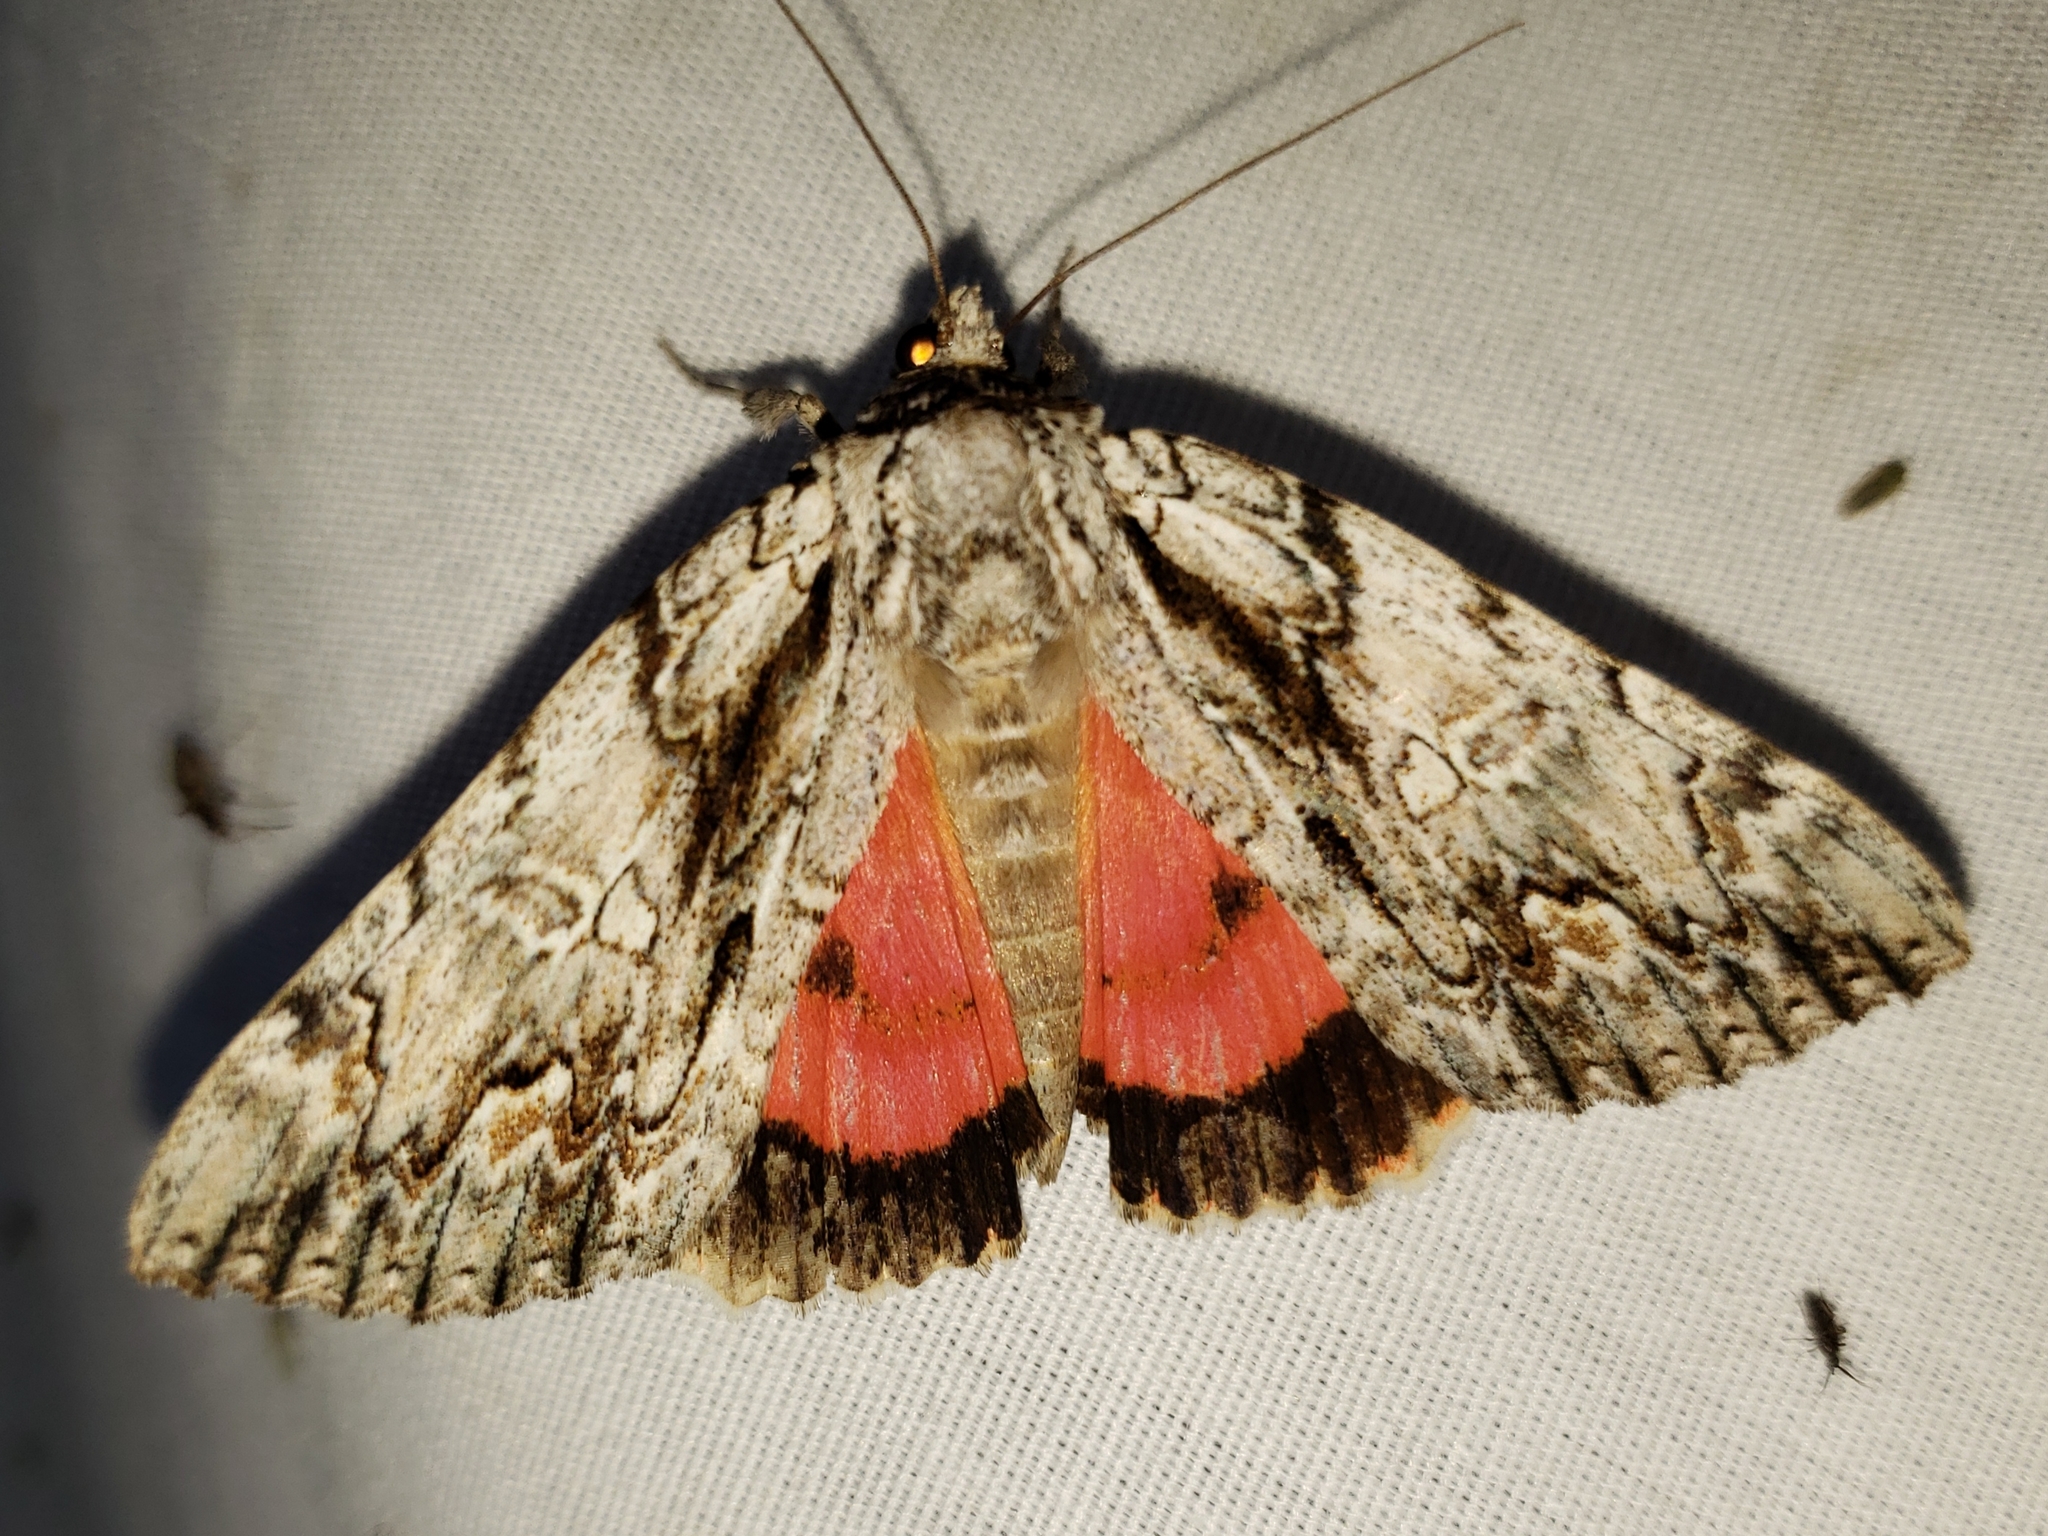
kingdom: Animalia
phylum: Arthropoda
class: Insecta
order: Lepidoptera
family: Erebidae
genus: Catocala
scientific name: Catocala coccinata
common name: Scarlet underwing
